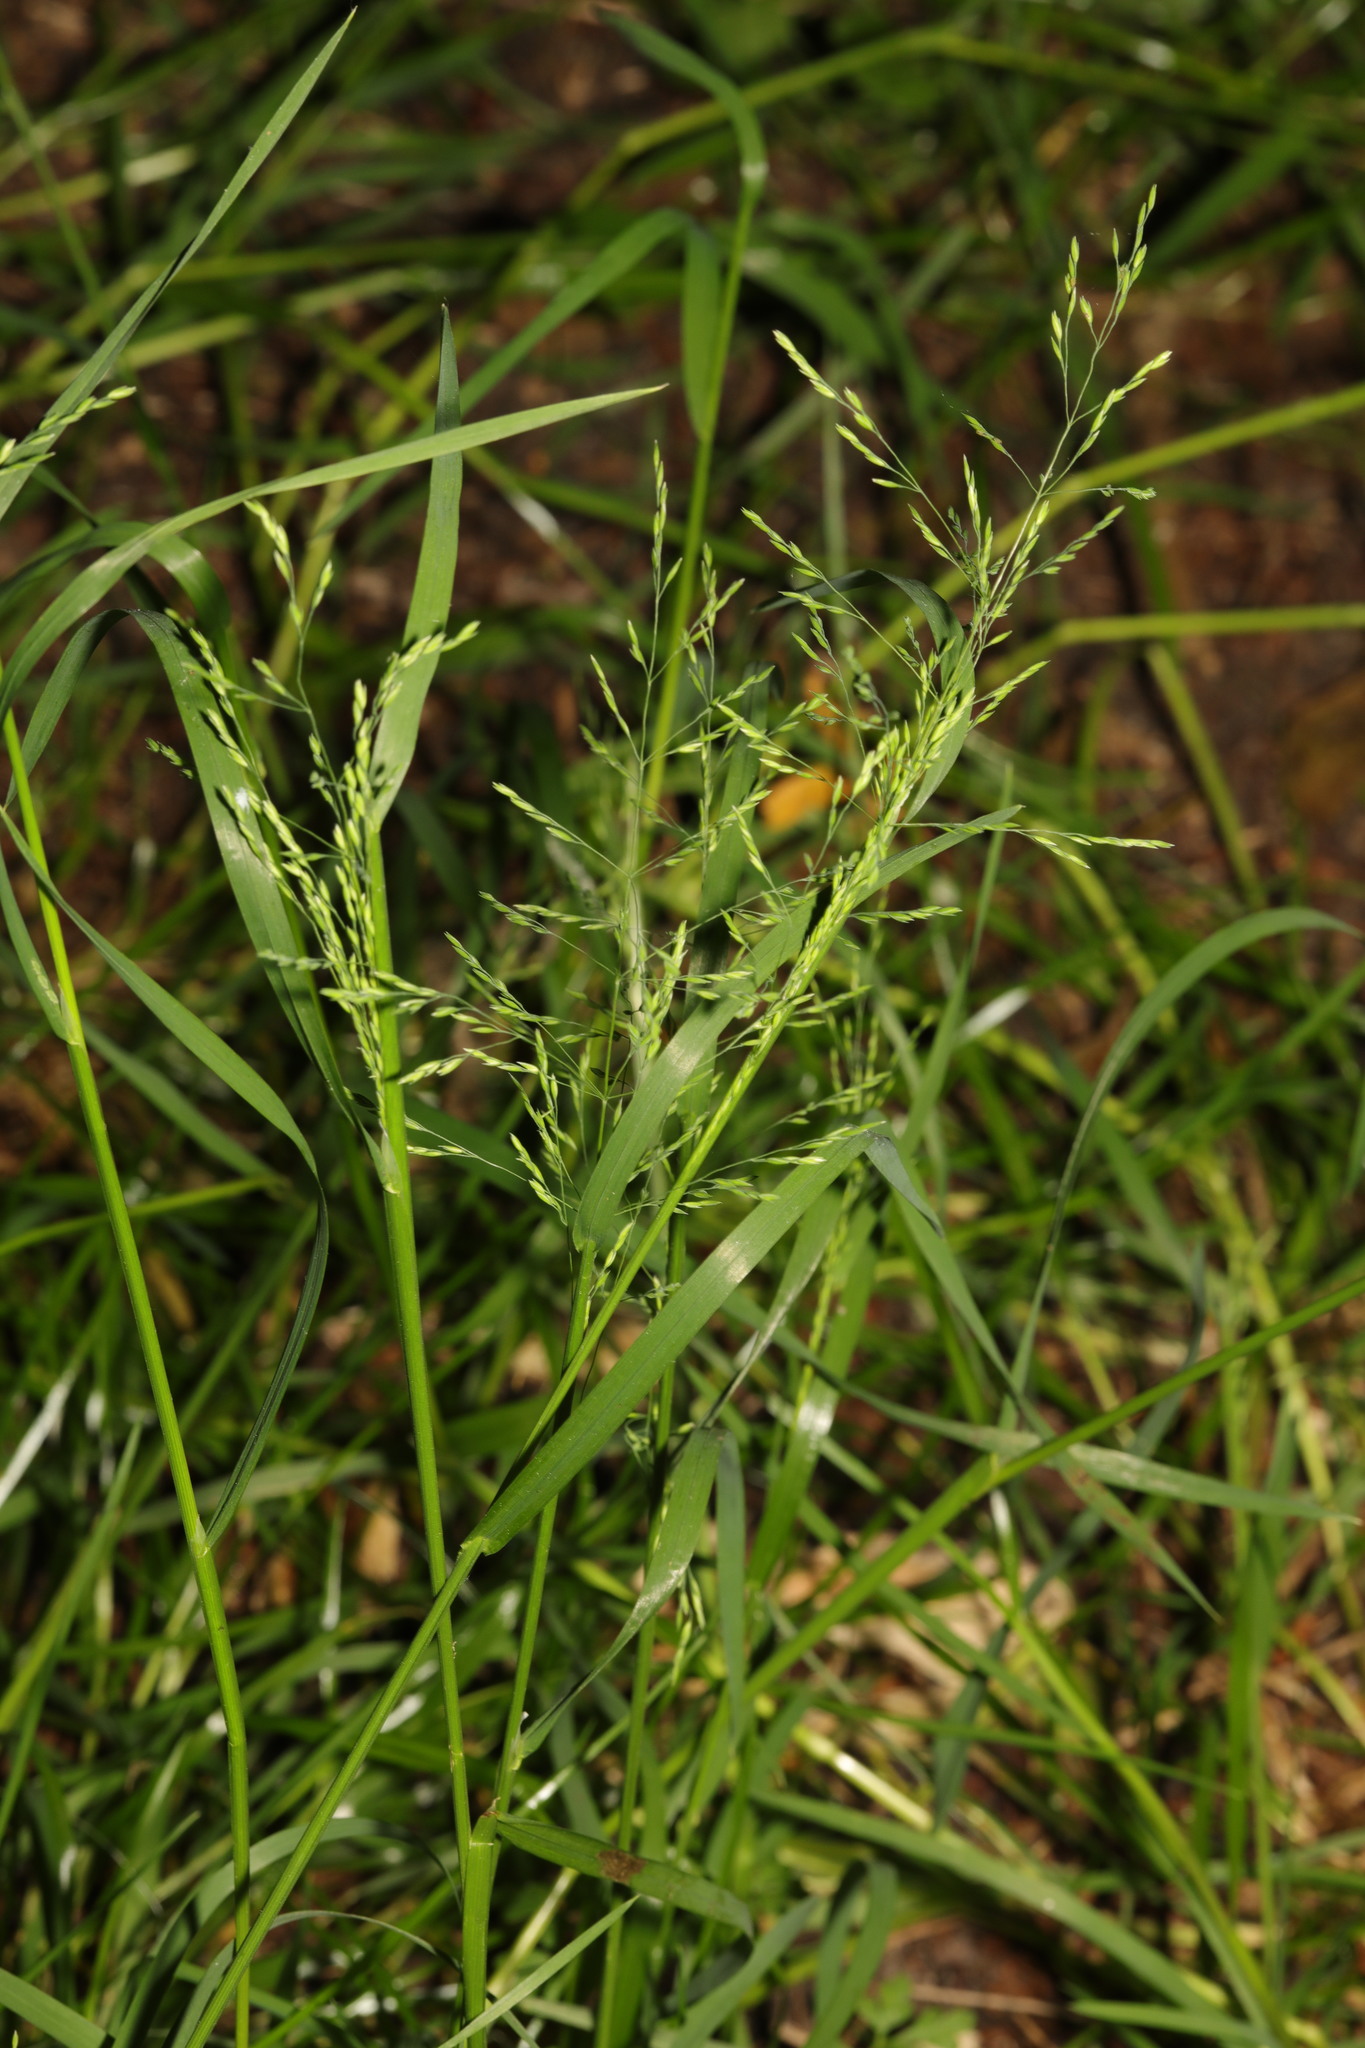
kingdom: Plantae
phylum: Tracheophyta
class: Liliopsida
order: Poales
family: Poaceae
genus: Poa
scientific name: Poa annua
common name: Annual bluegrass
